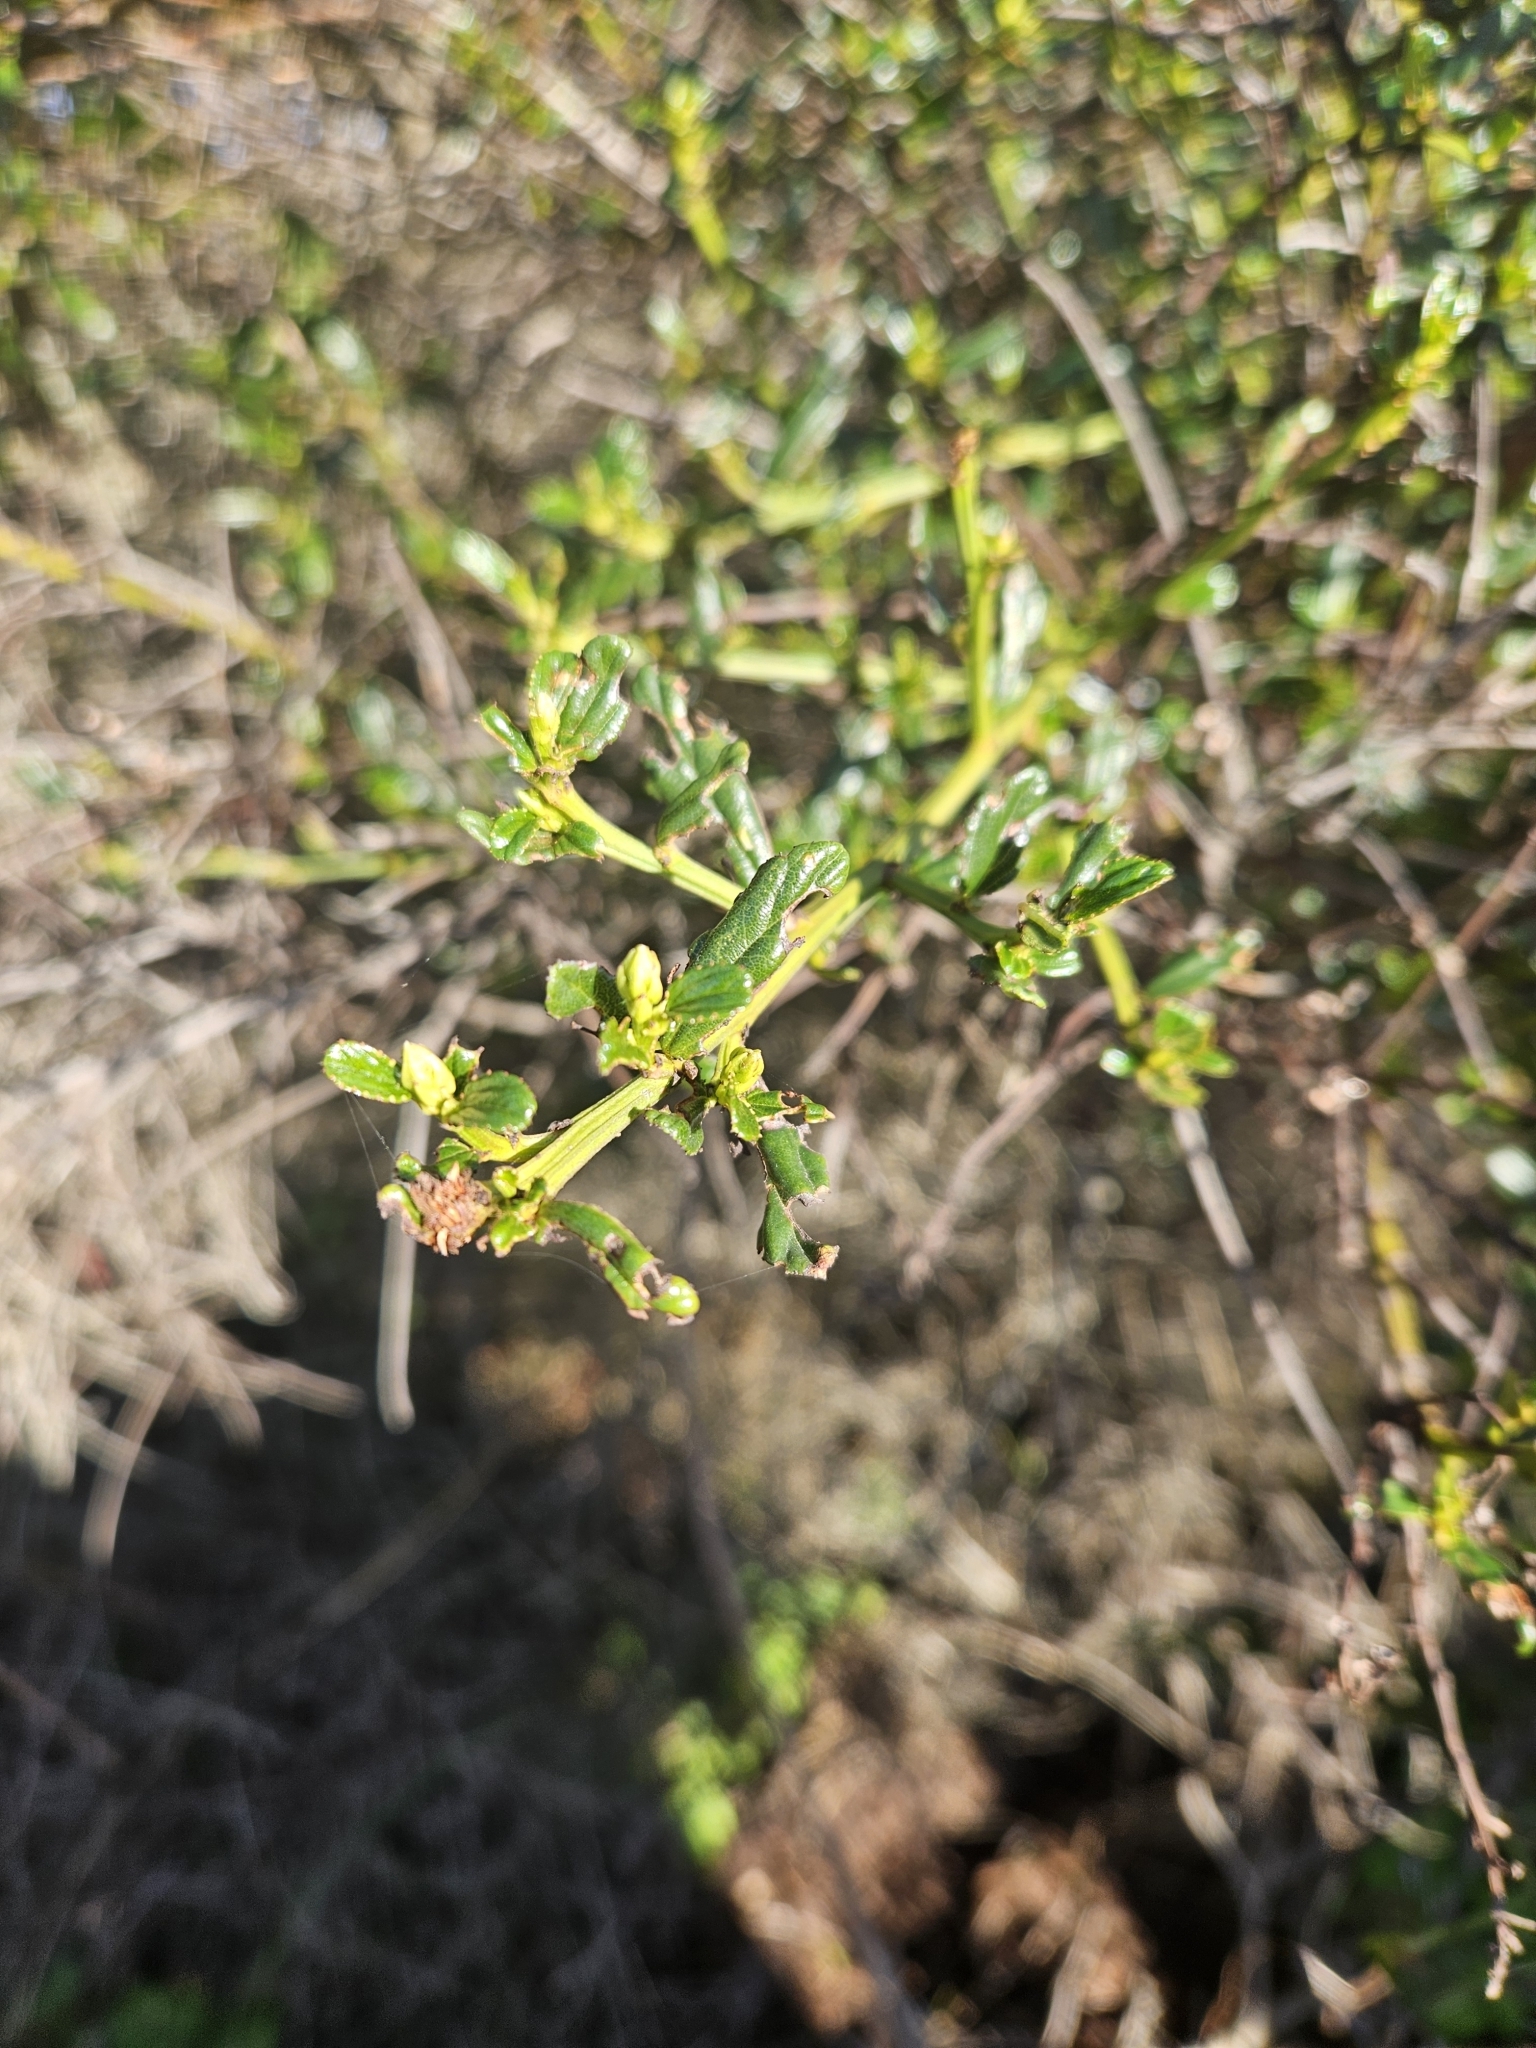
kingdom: Plantae
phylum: Tracheophyta
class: Magnoliopsida
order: Rosales
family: Rhamnaceae
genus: Ceanothus
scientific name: Ceanothus thyrsiflorus
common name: California-lilac
